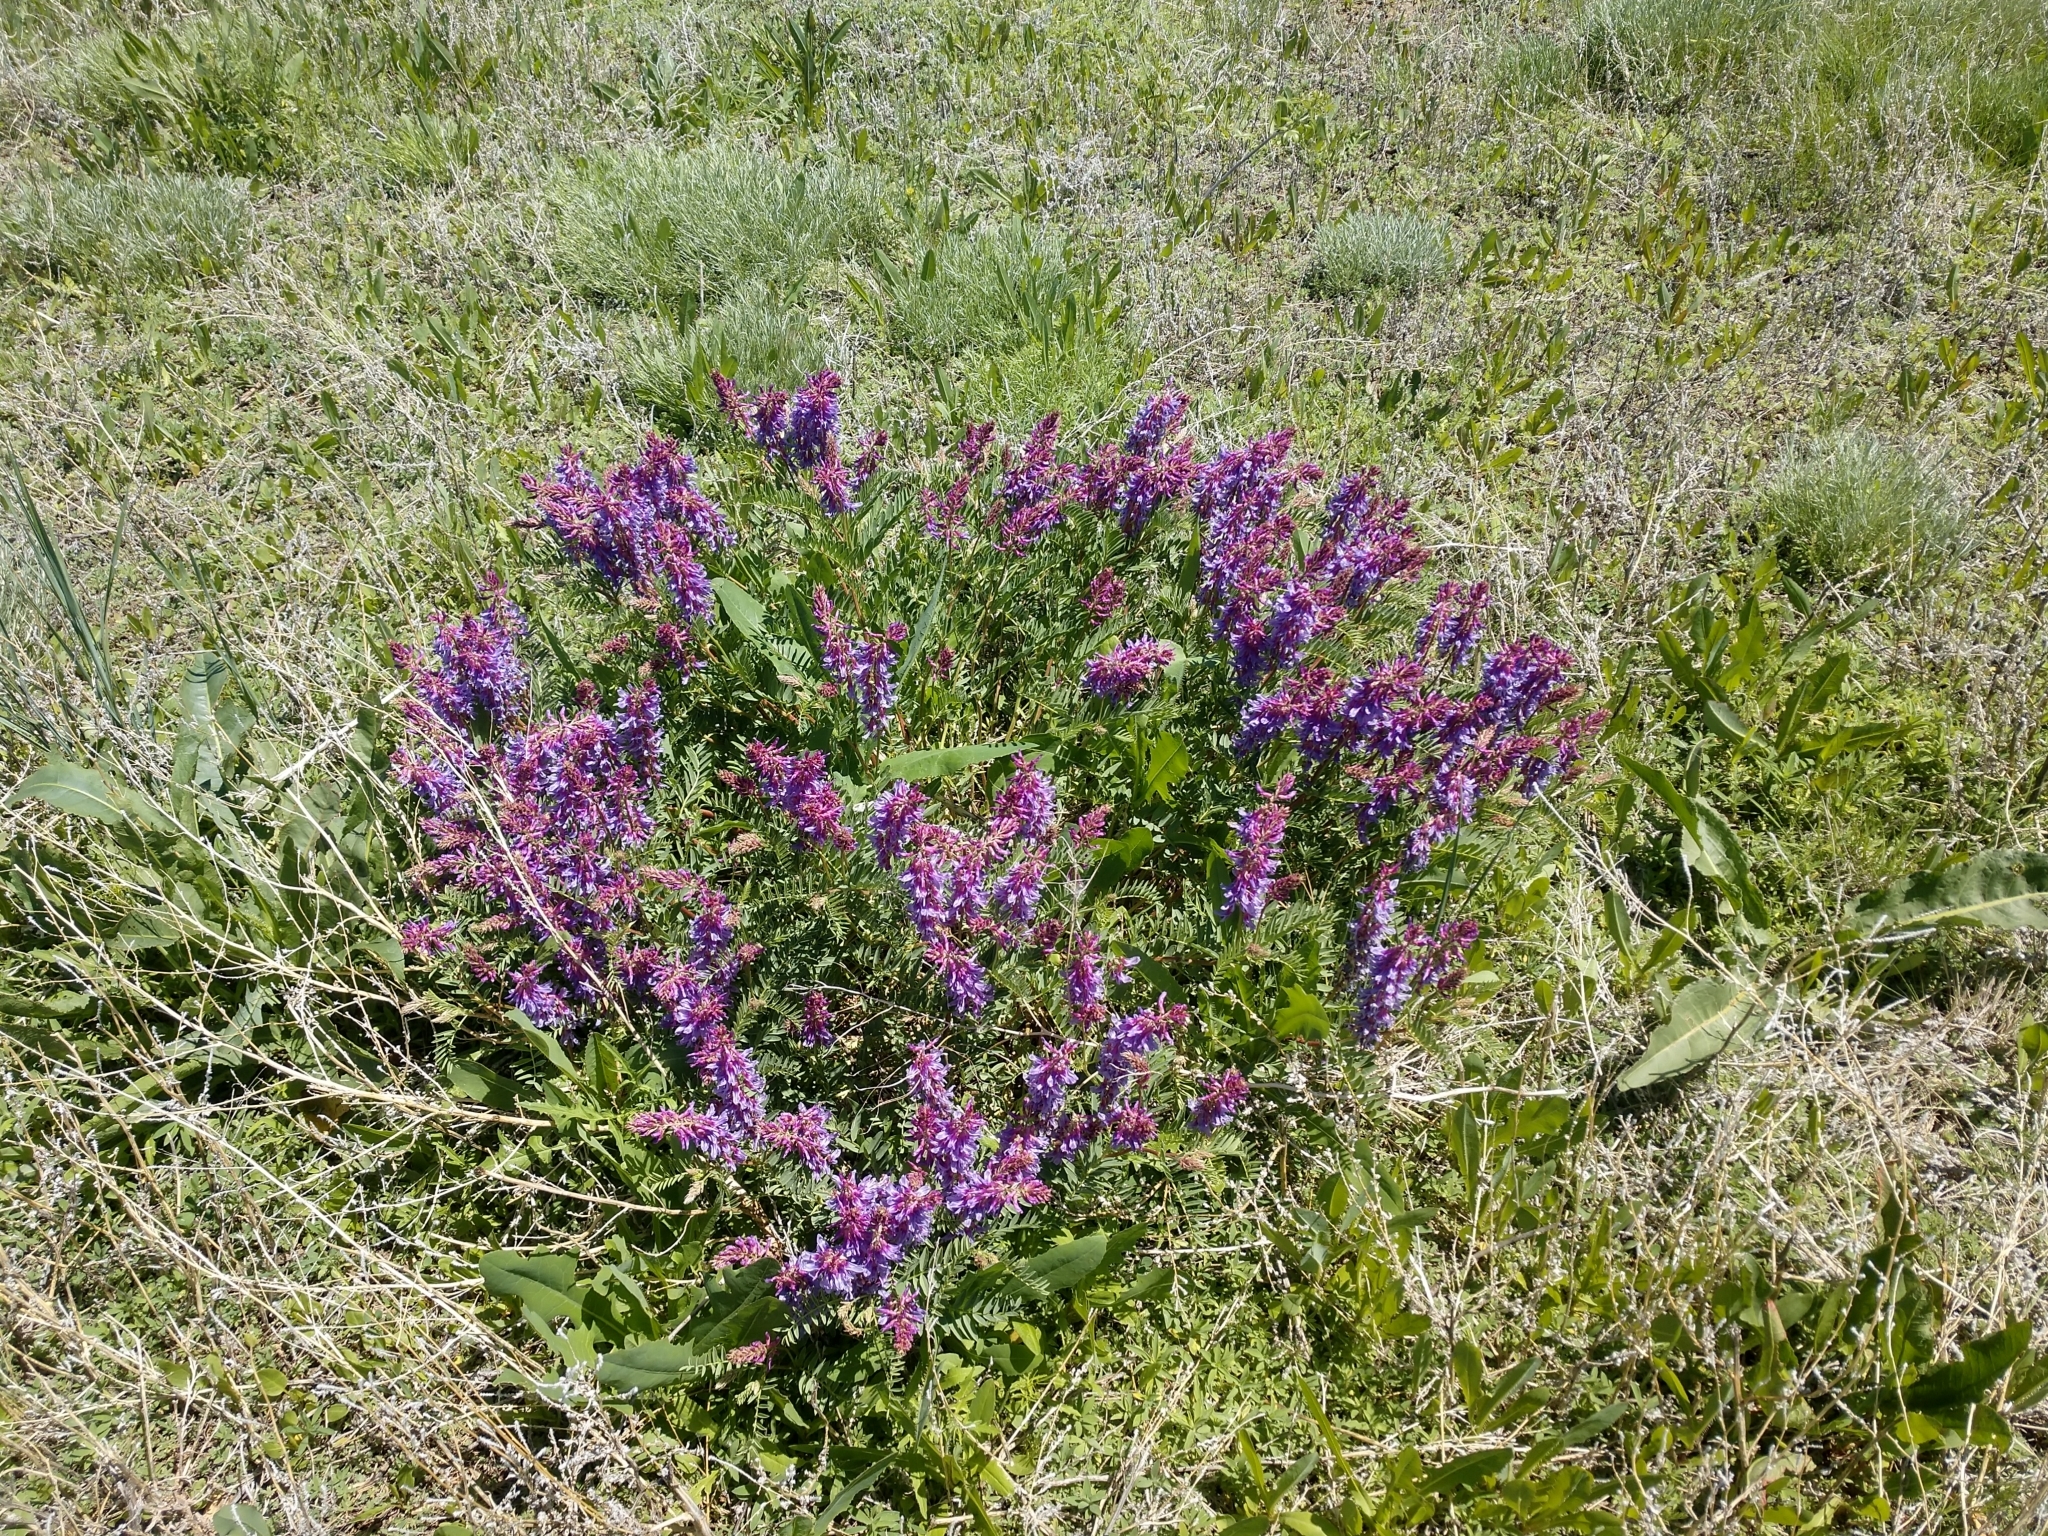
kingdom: Plantae
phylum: Tracheophyta
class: Magnoliopsida
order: Fabales
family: Fabaceae
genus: Astragalus
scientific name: Astragalus bisulcatus
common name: Two-groove milk-vetch
